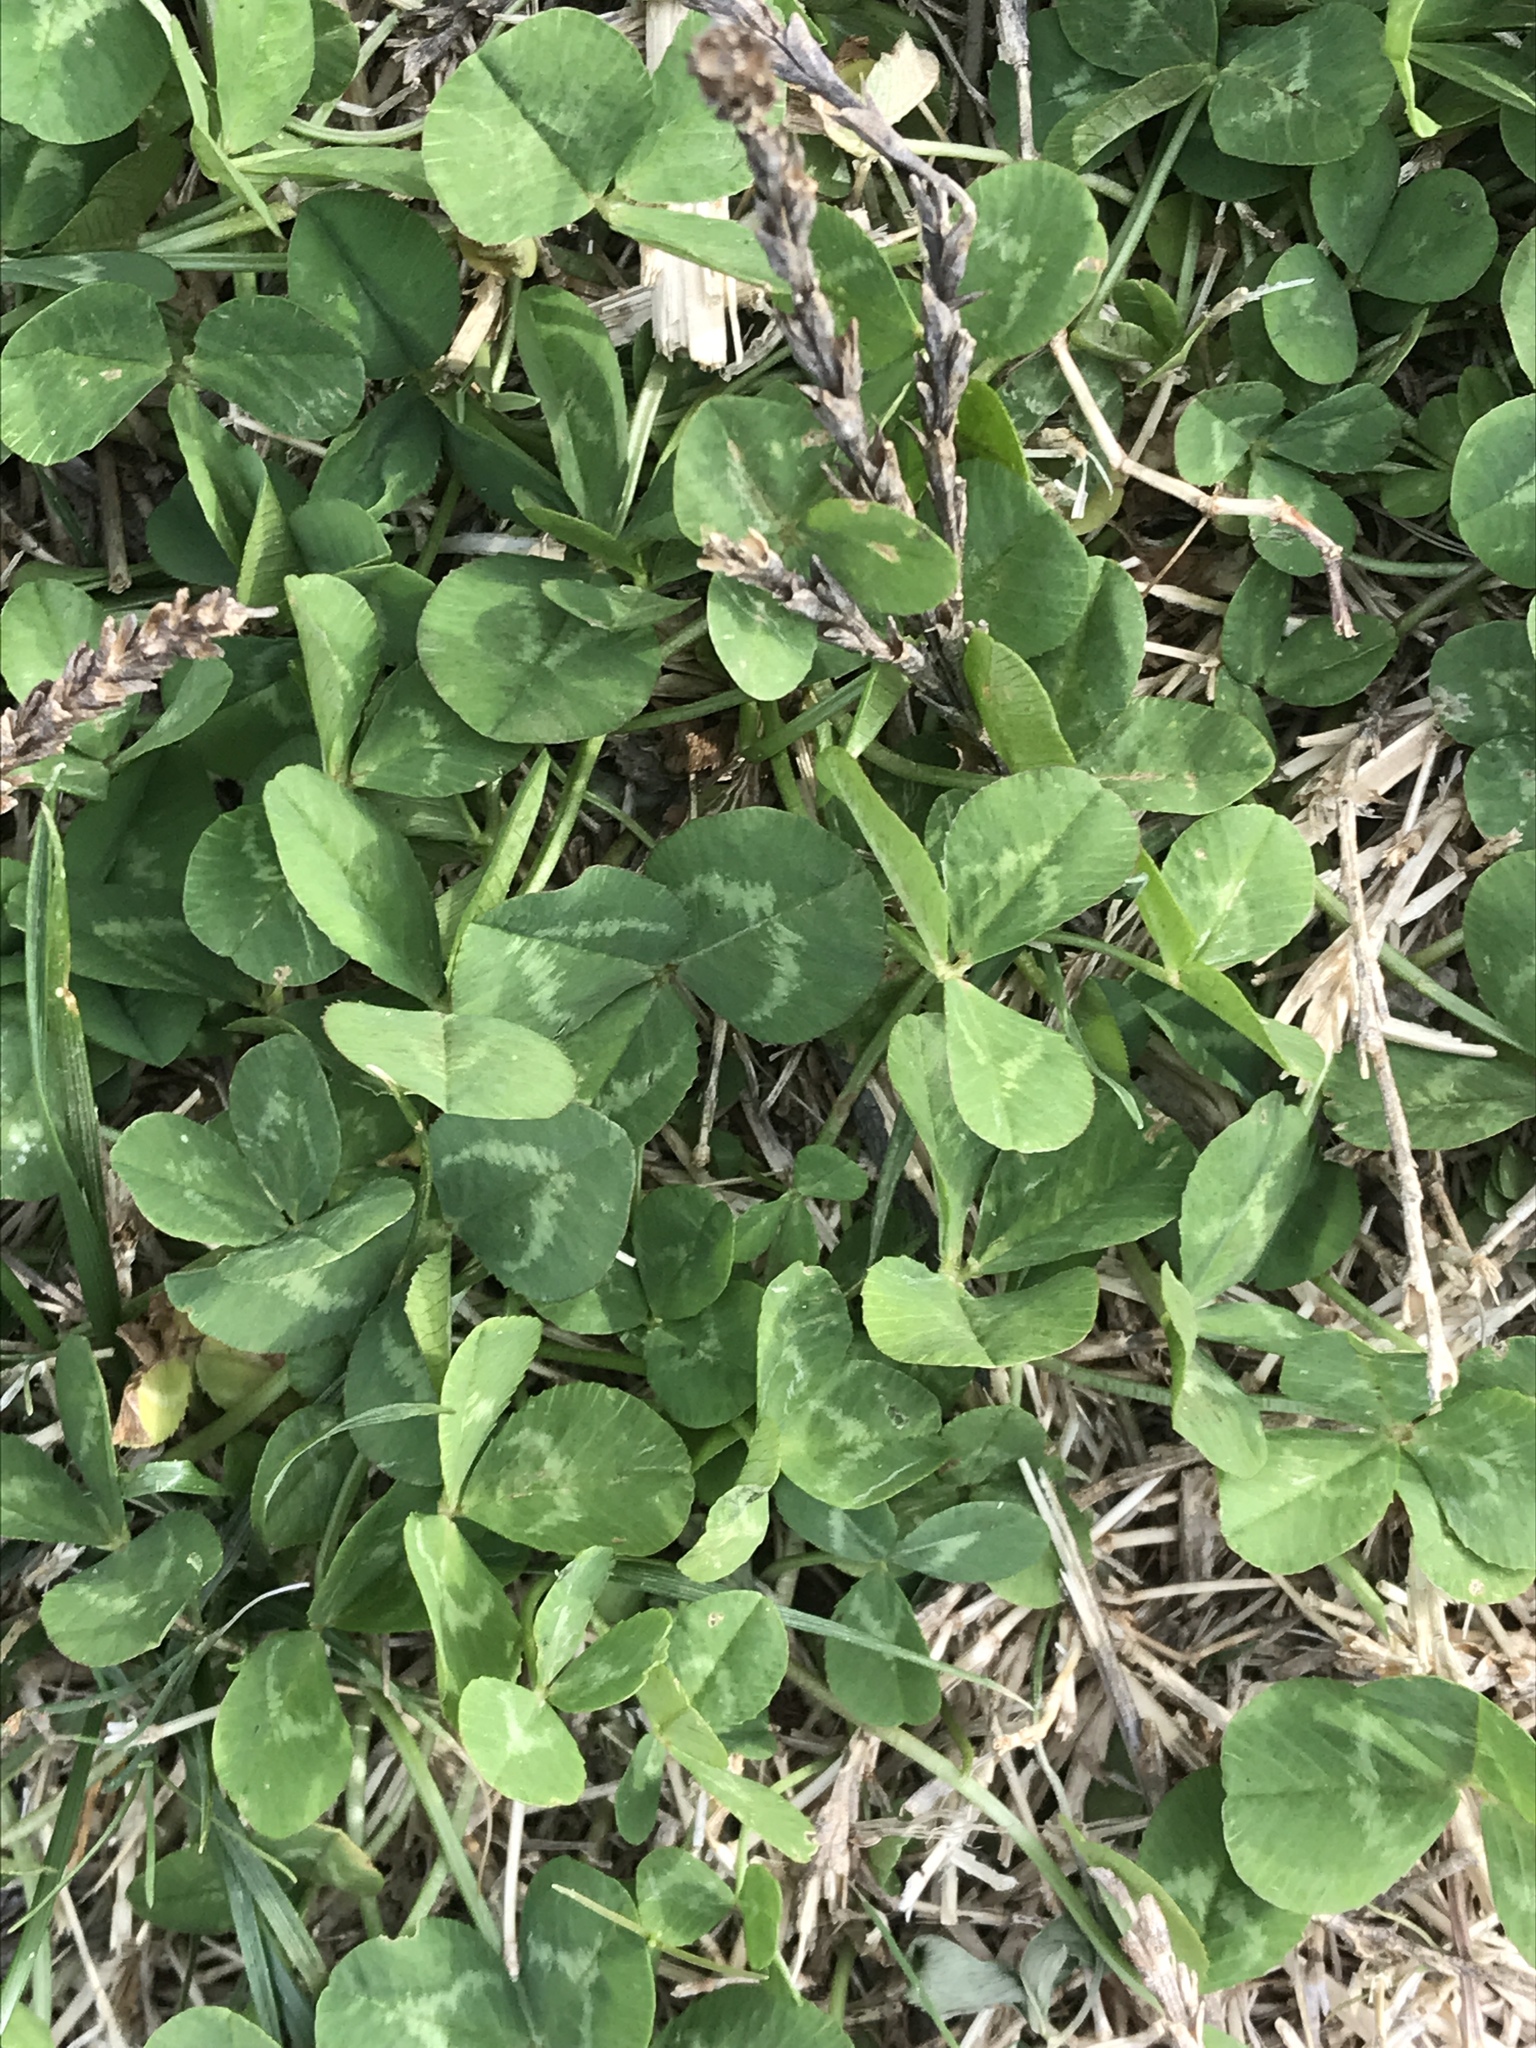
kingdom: Plantae
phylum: Tracheophyta
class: Magnoliopsida
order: Fabales
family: Fabaceae
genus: Trifolium
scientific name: Trifolium repens
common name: White clover
